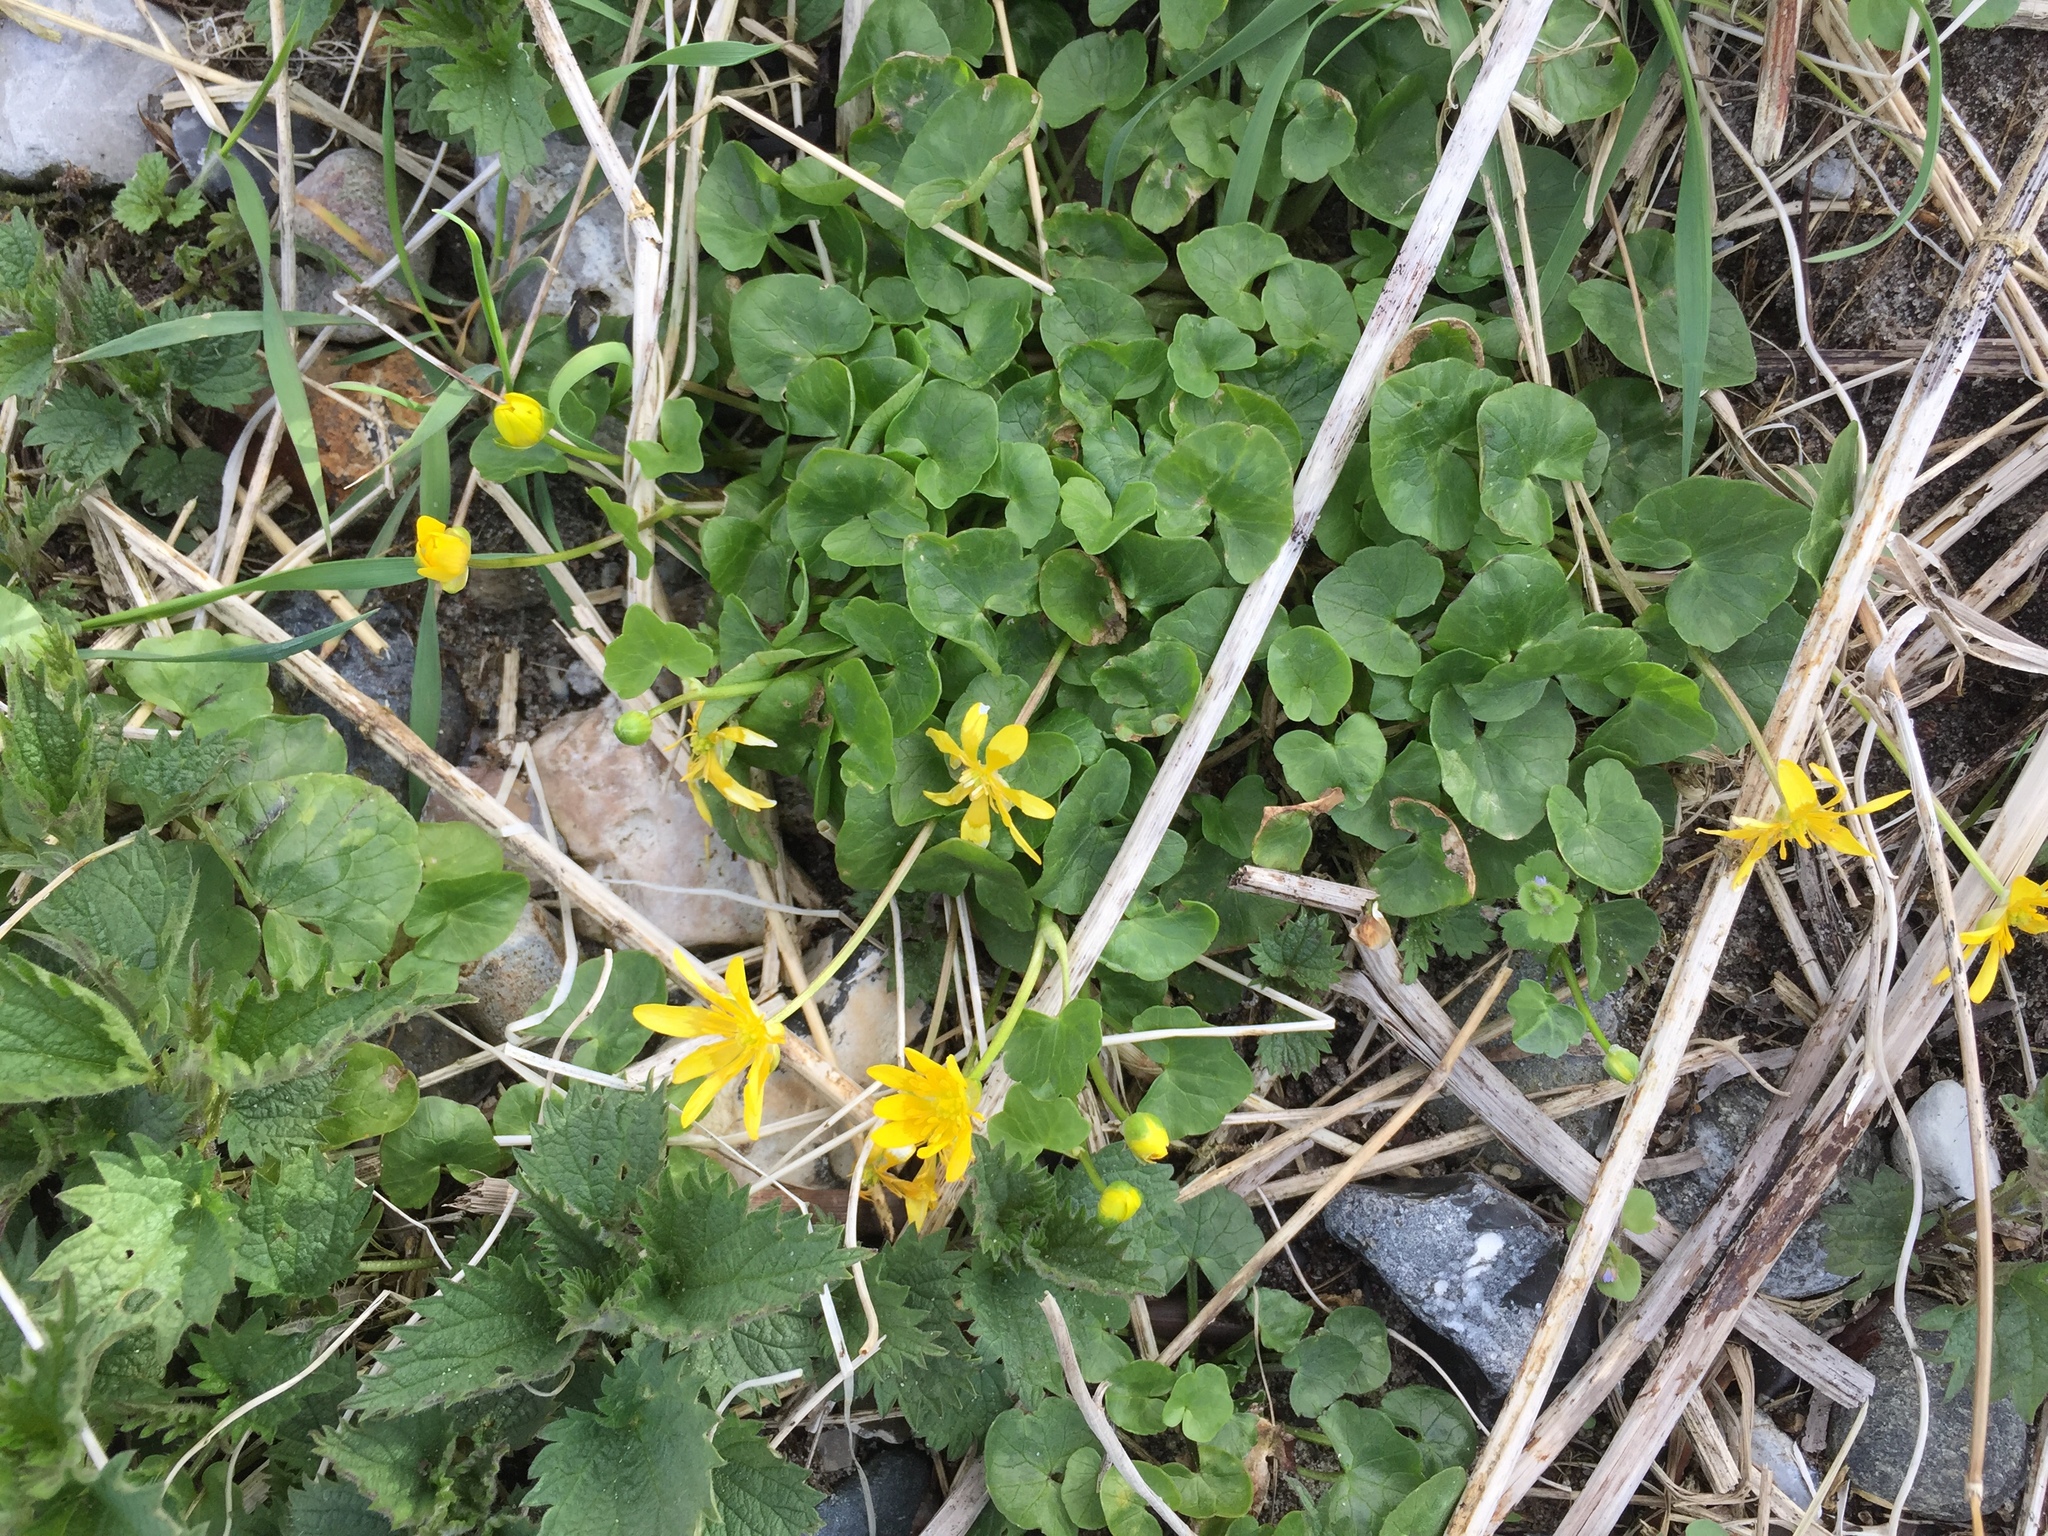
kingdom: Plantae
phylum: Tracheophyta
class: Magnoliopsida
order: Ranunculales
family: Ranunculaceae
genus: Ficaria
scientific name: Ficaria verna
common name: Lesser celandine
